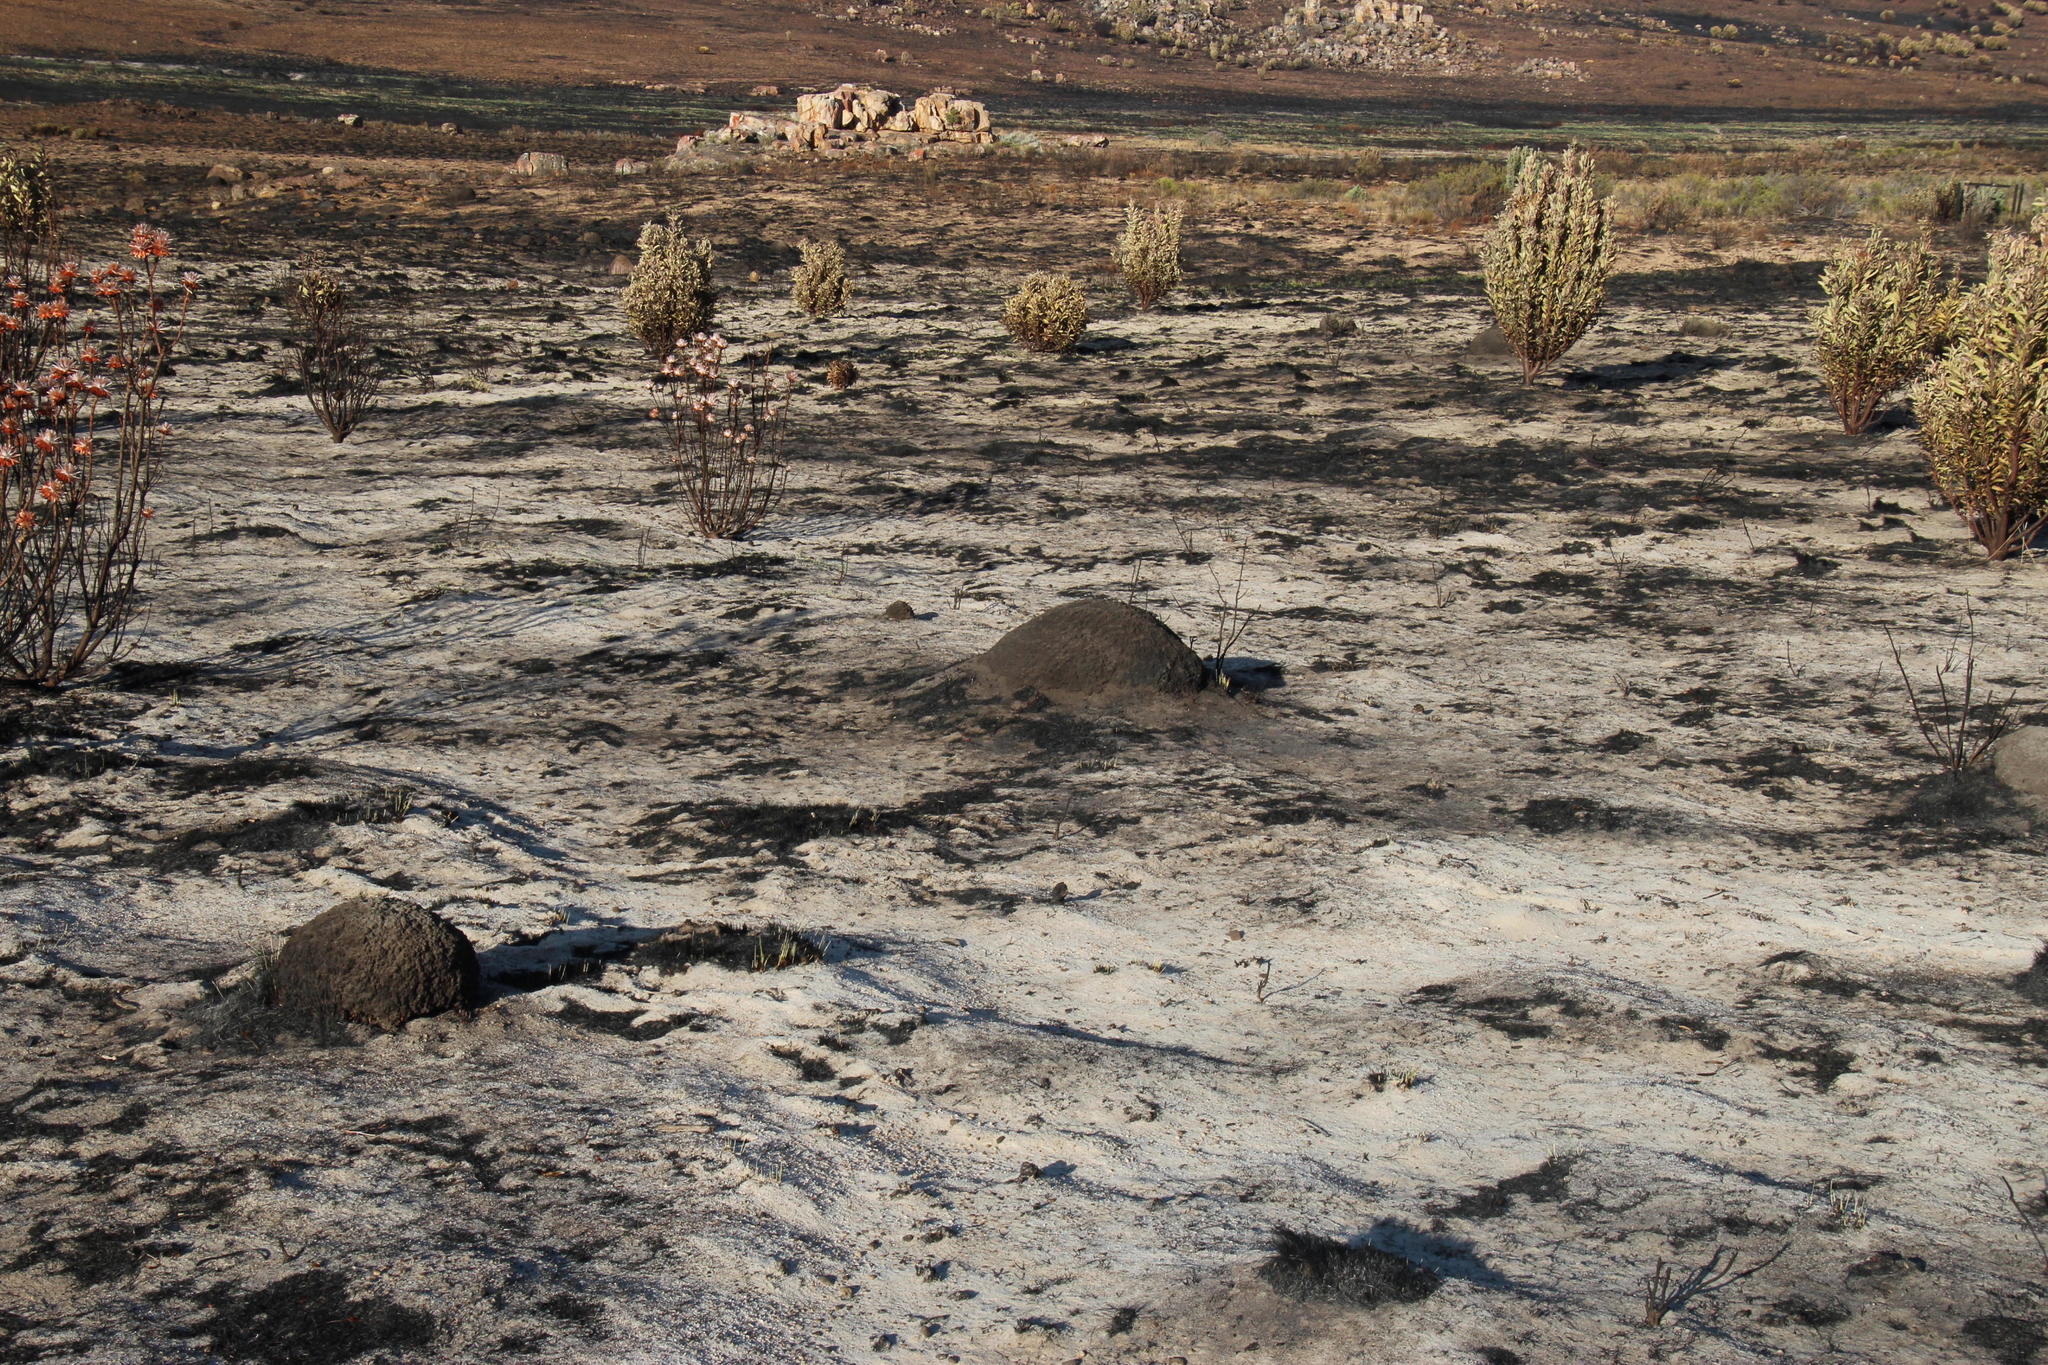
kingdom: Animalia
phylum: Arthropoda
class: Insecta
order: Blattodea
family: Termitidae
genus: Amitermes
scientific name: Amitermes hastatus
